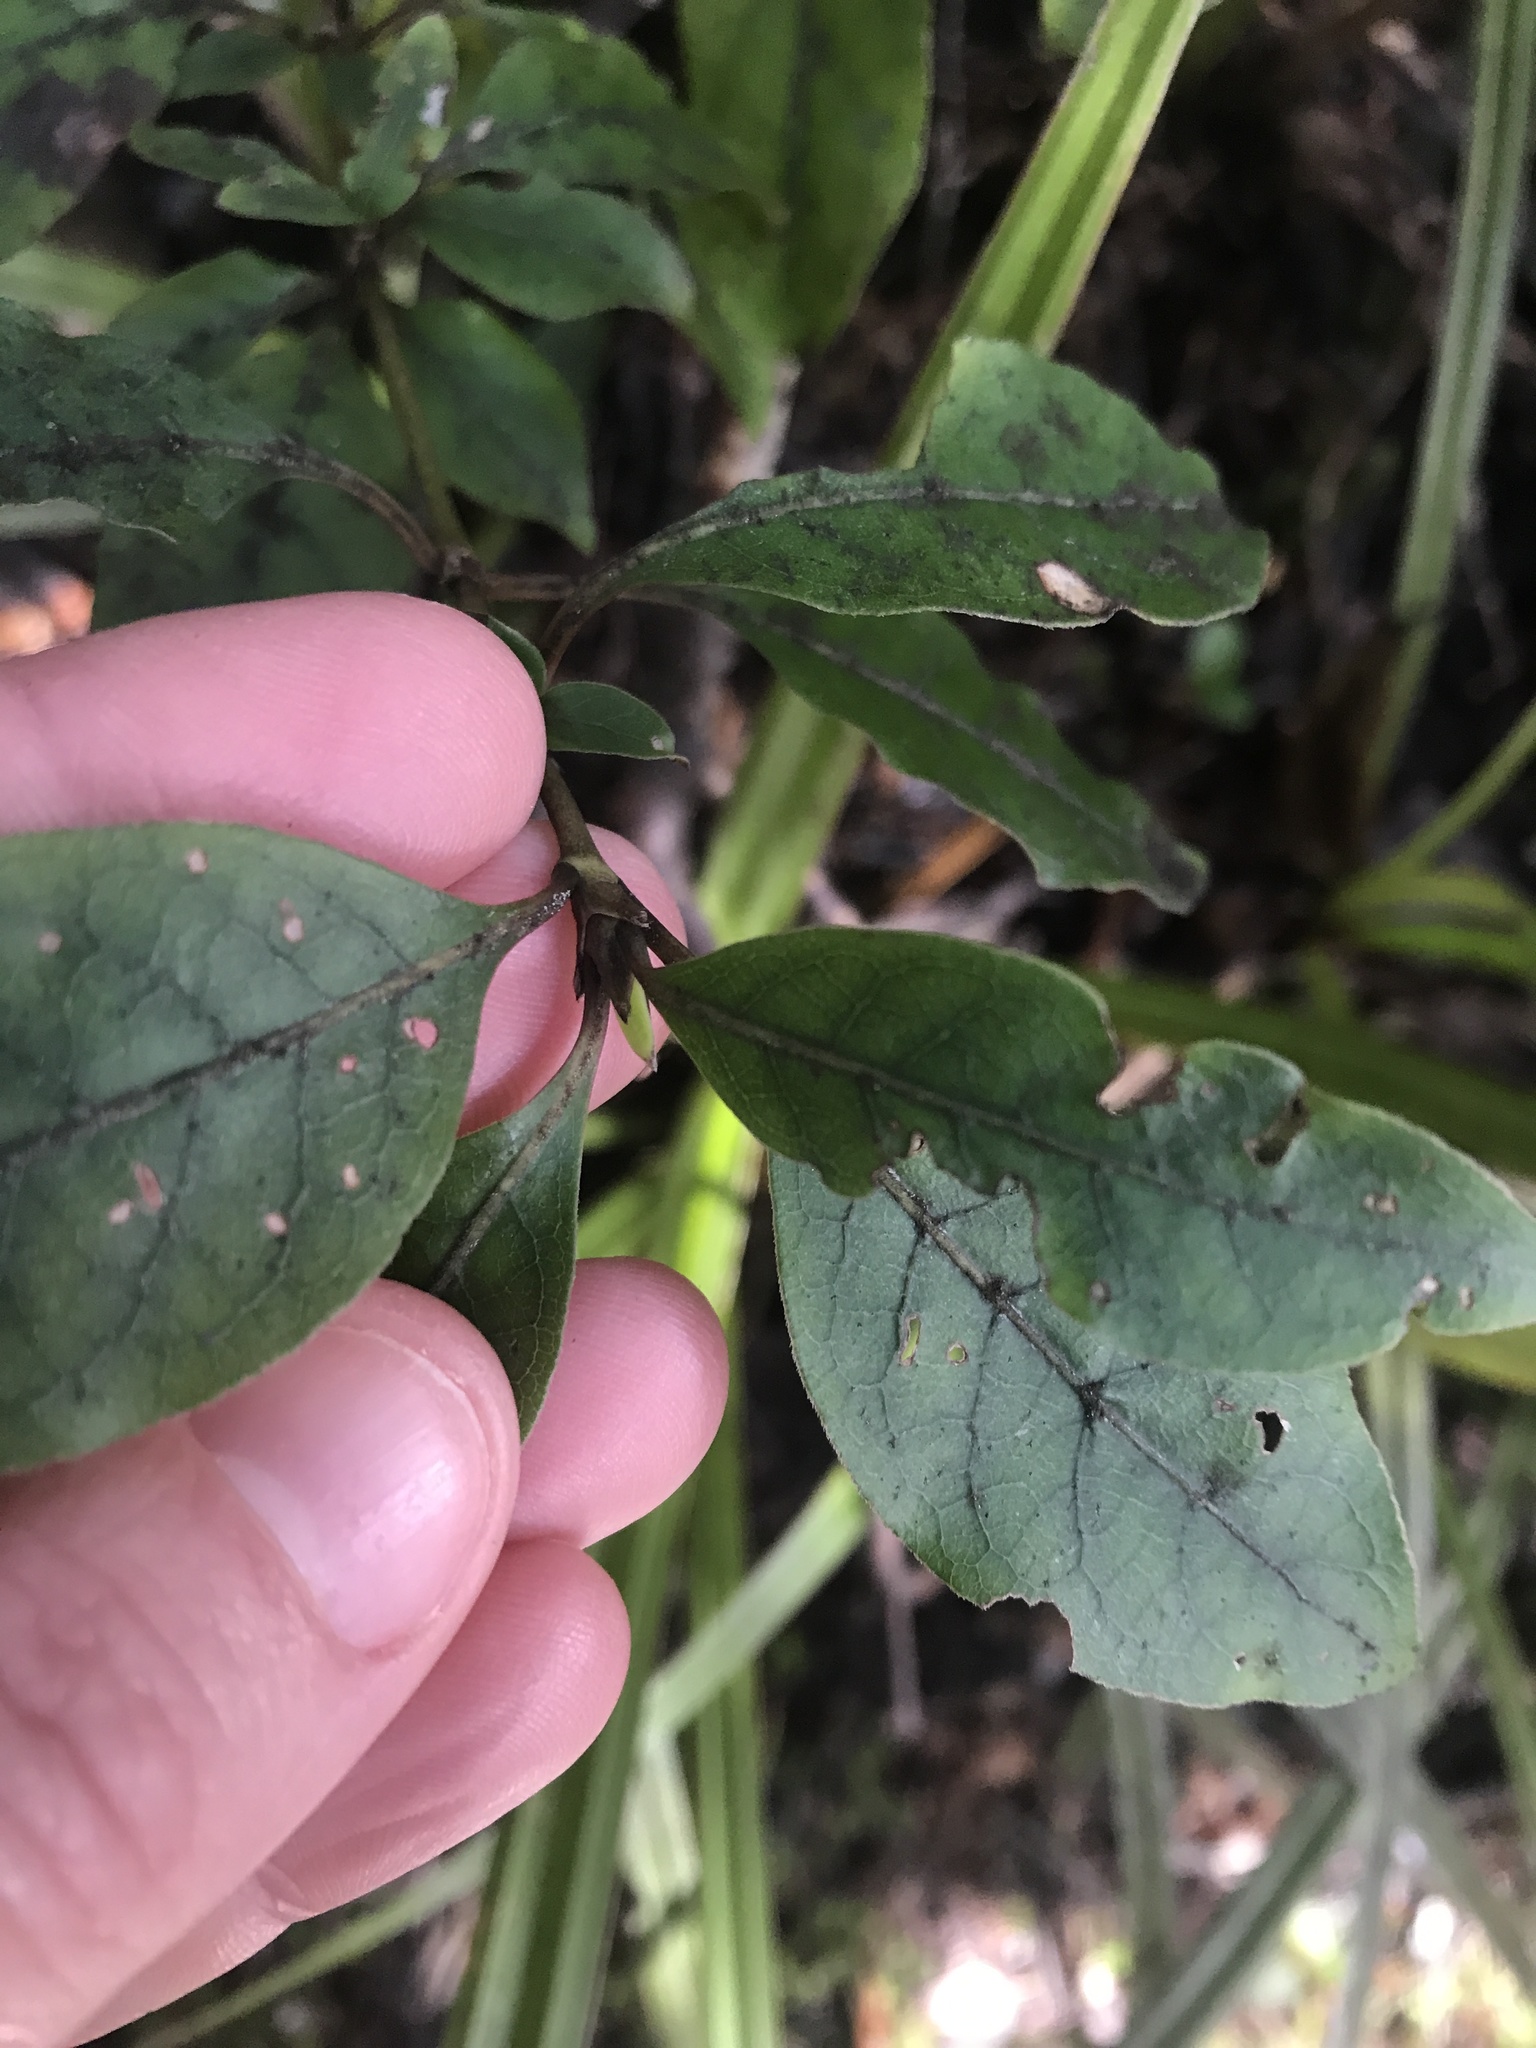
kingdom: Plantae
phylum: Tracheophyta
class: Magnoliopsida
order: Gentianales
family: Rubiaceae
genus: Coprosma
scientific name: Coprosma tenuifolia
